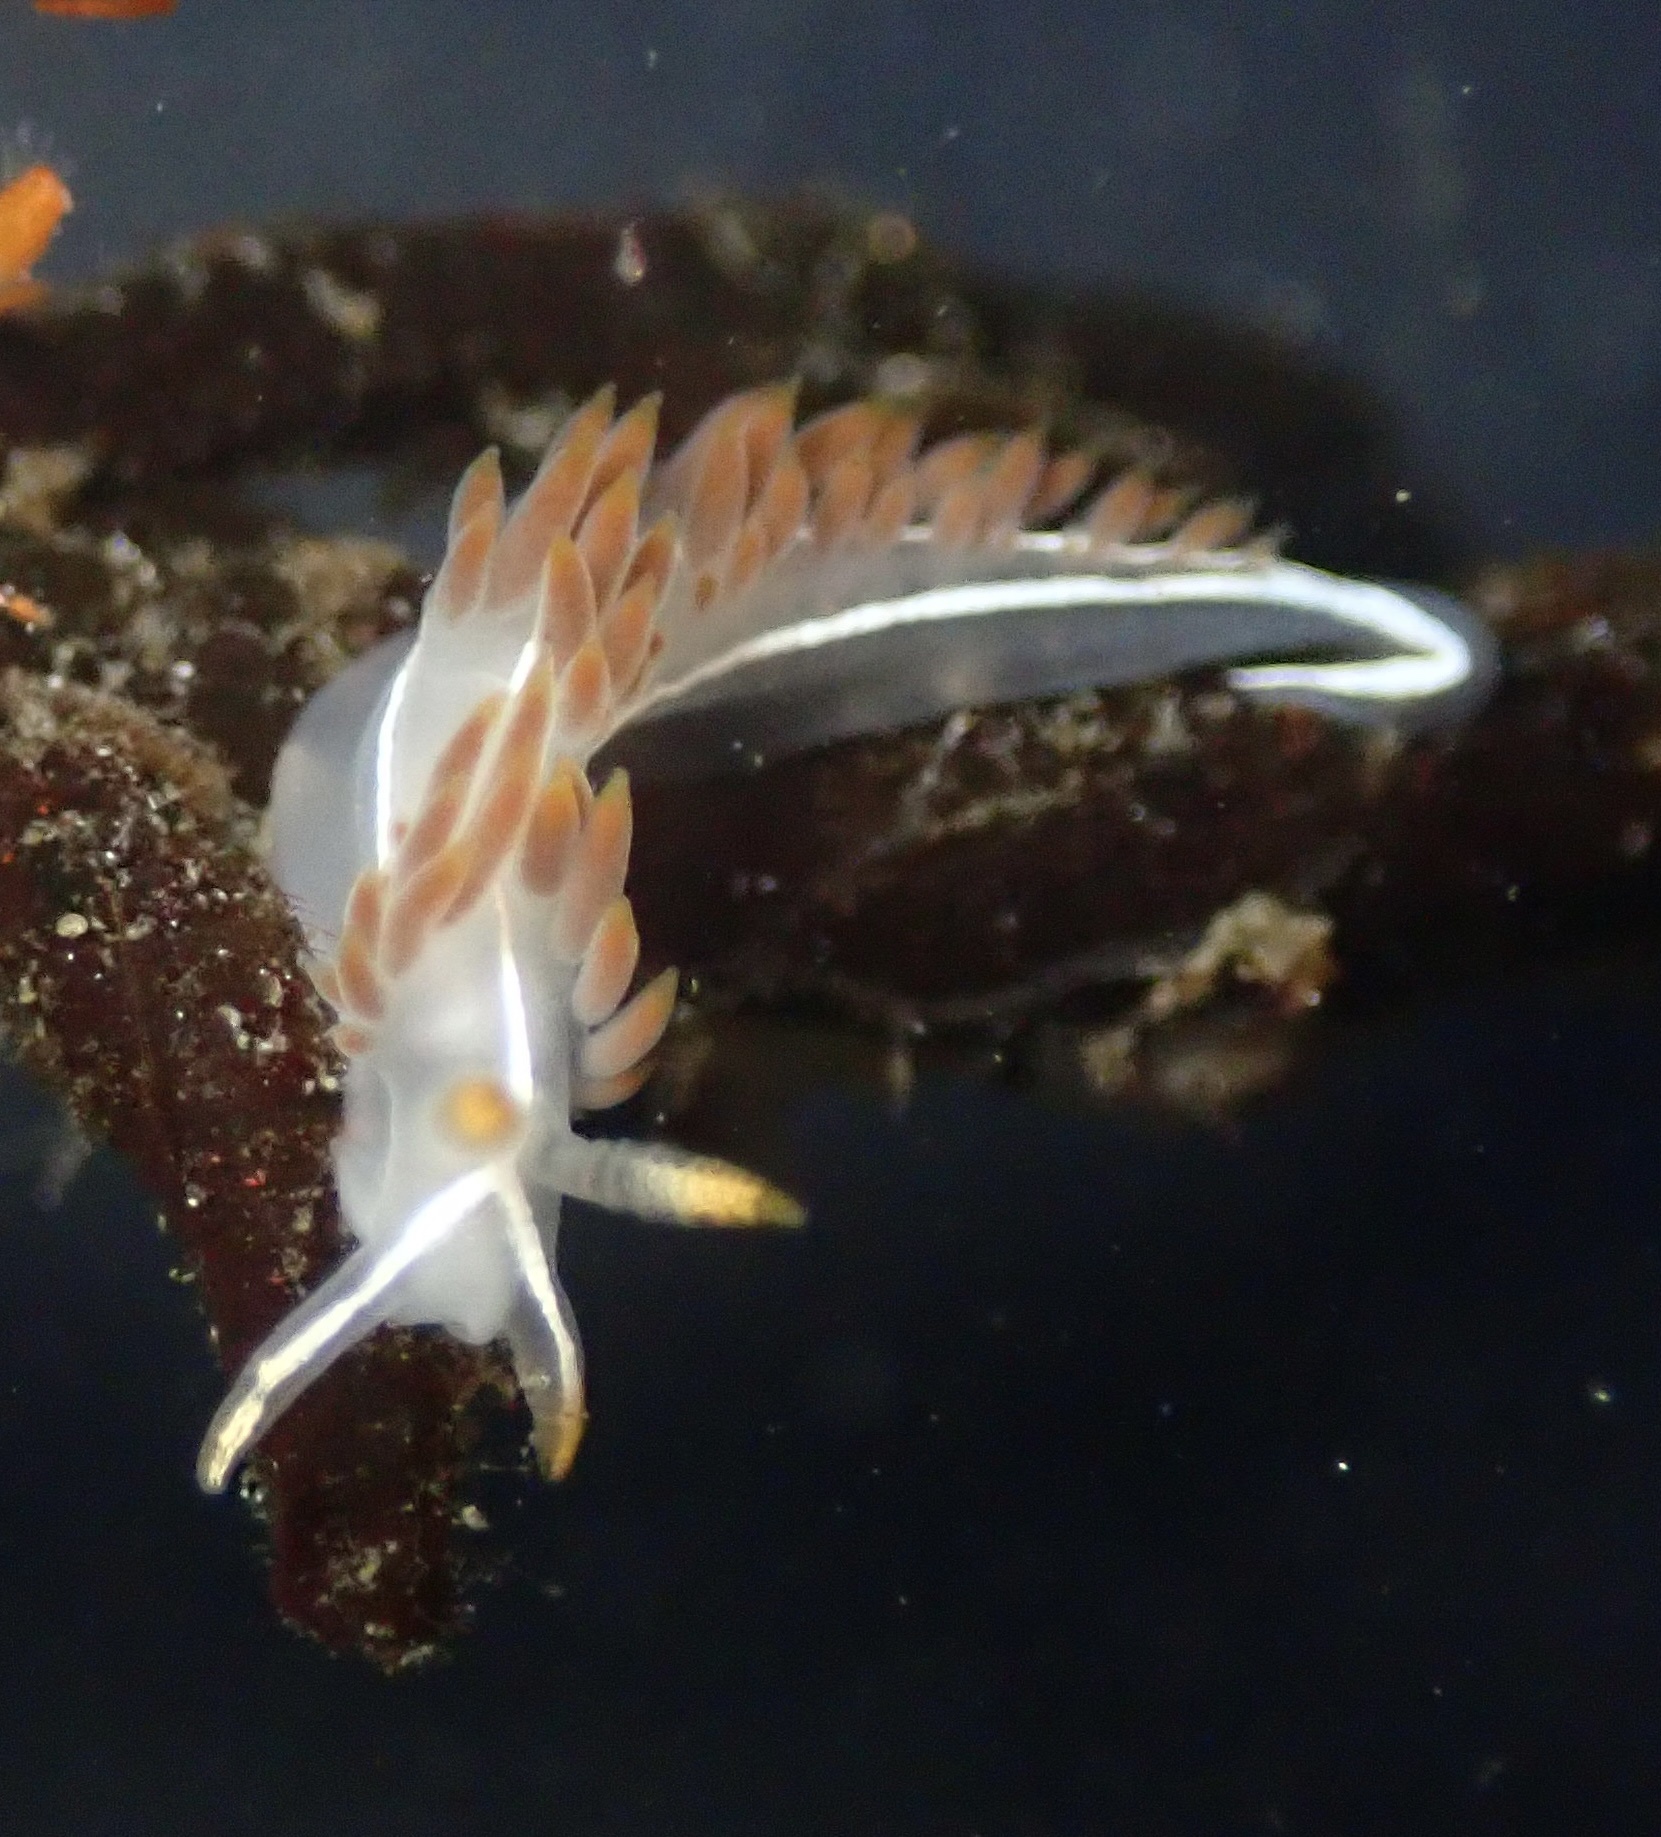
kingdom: Animalia
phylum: Mollusca
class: Gastropoda
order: Nudibranchia
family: Coryphellidae
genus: Coryphella
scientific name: Coryphella trilineata
